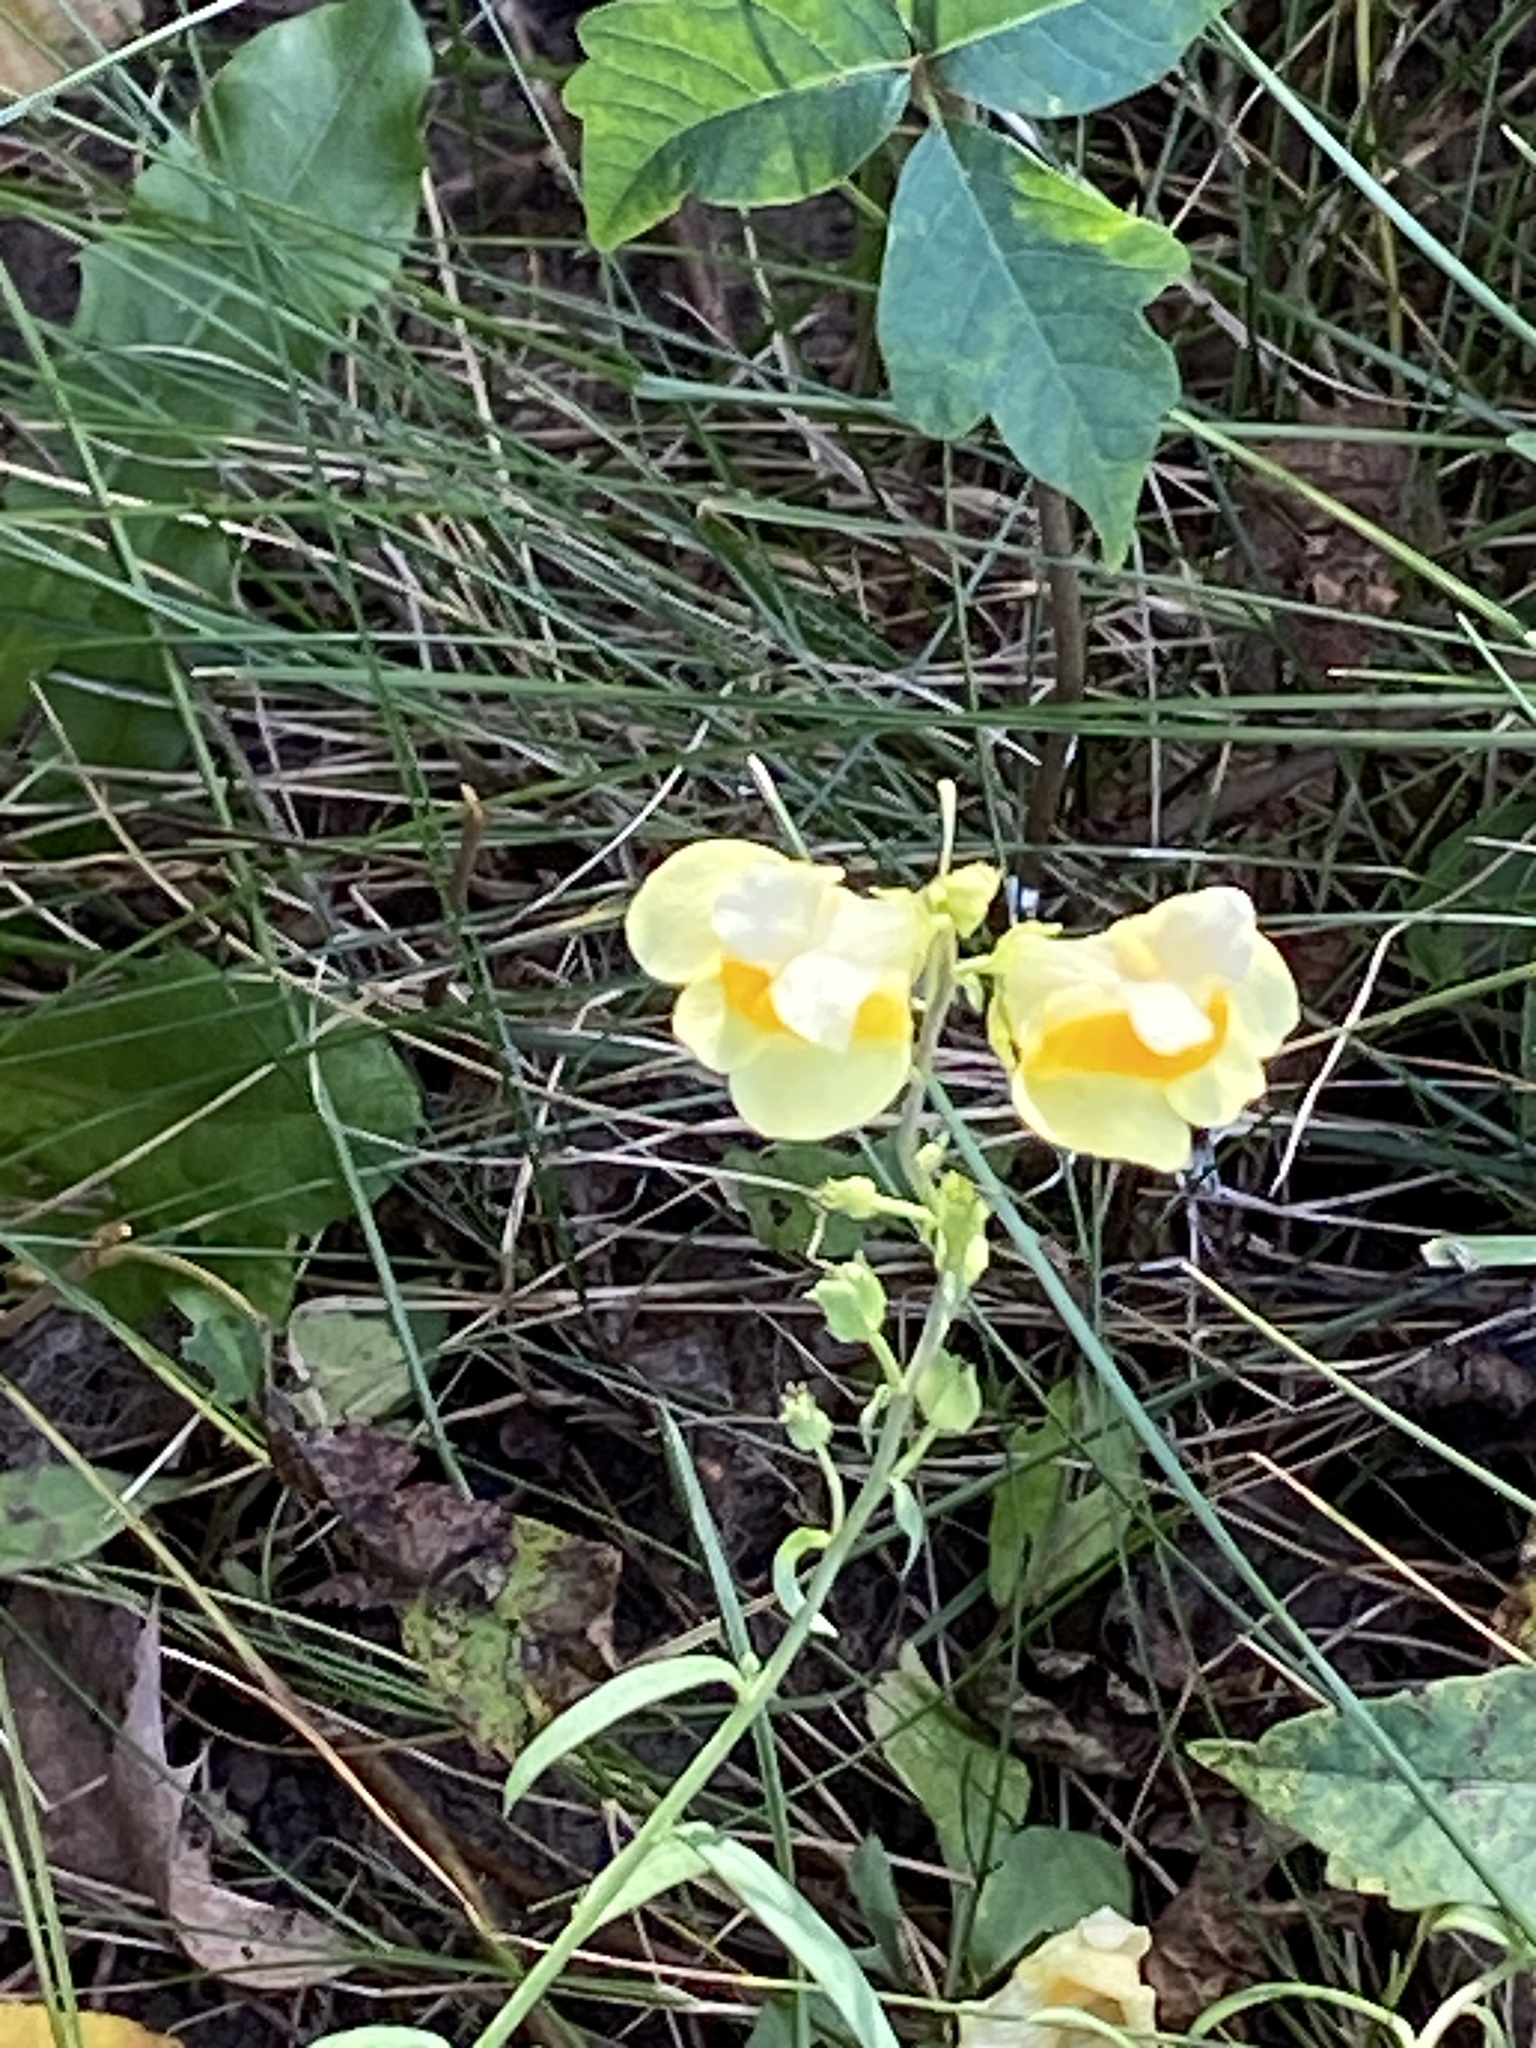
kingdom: Plantae
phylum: Tracheophyta
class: Magnoliopsida
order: Lamiales
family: Plantaginaceae
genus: Linaria
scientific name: Linaria vulgaris
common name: Butter and eggs
